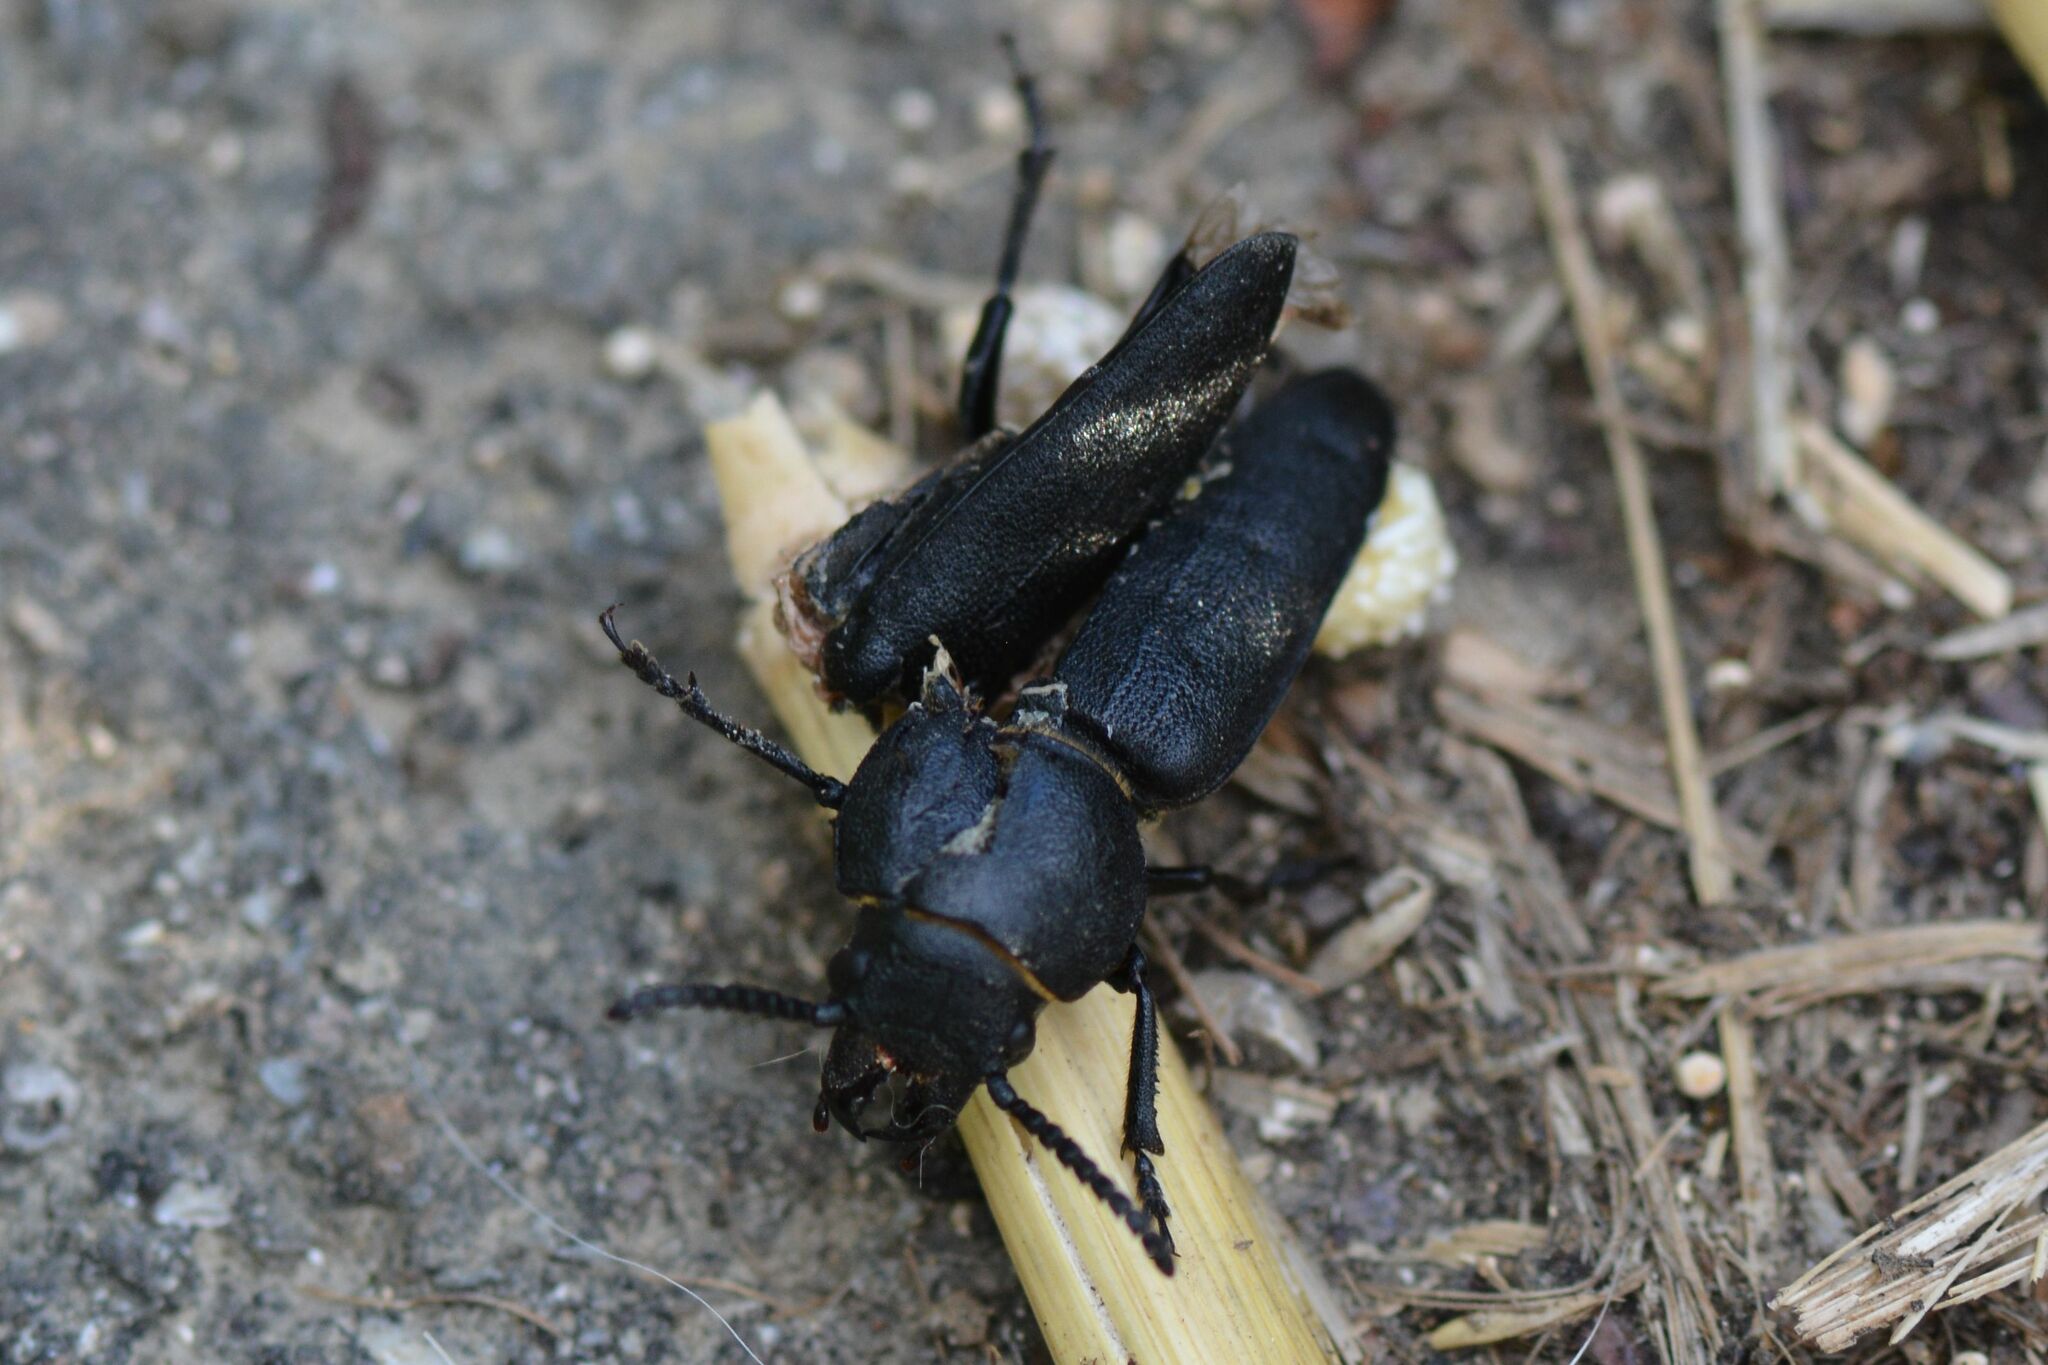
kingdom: Animalia
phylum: Arthropoda
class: Insecta
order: Coleoptera
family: Cerambycidae
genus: Spondylis
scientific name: Spondylis buprestoides
